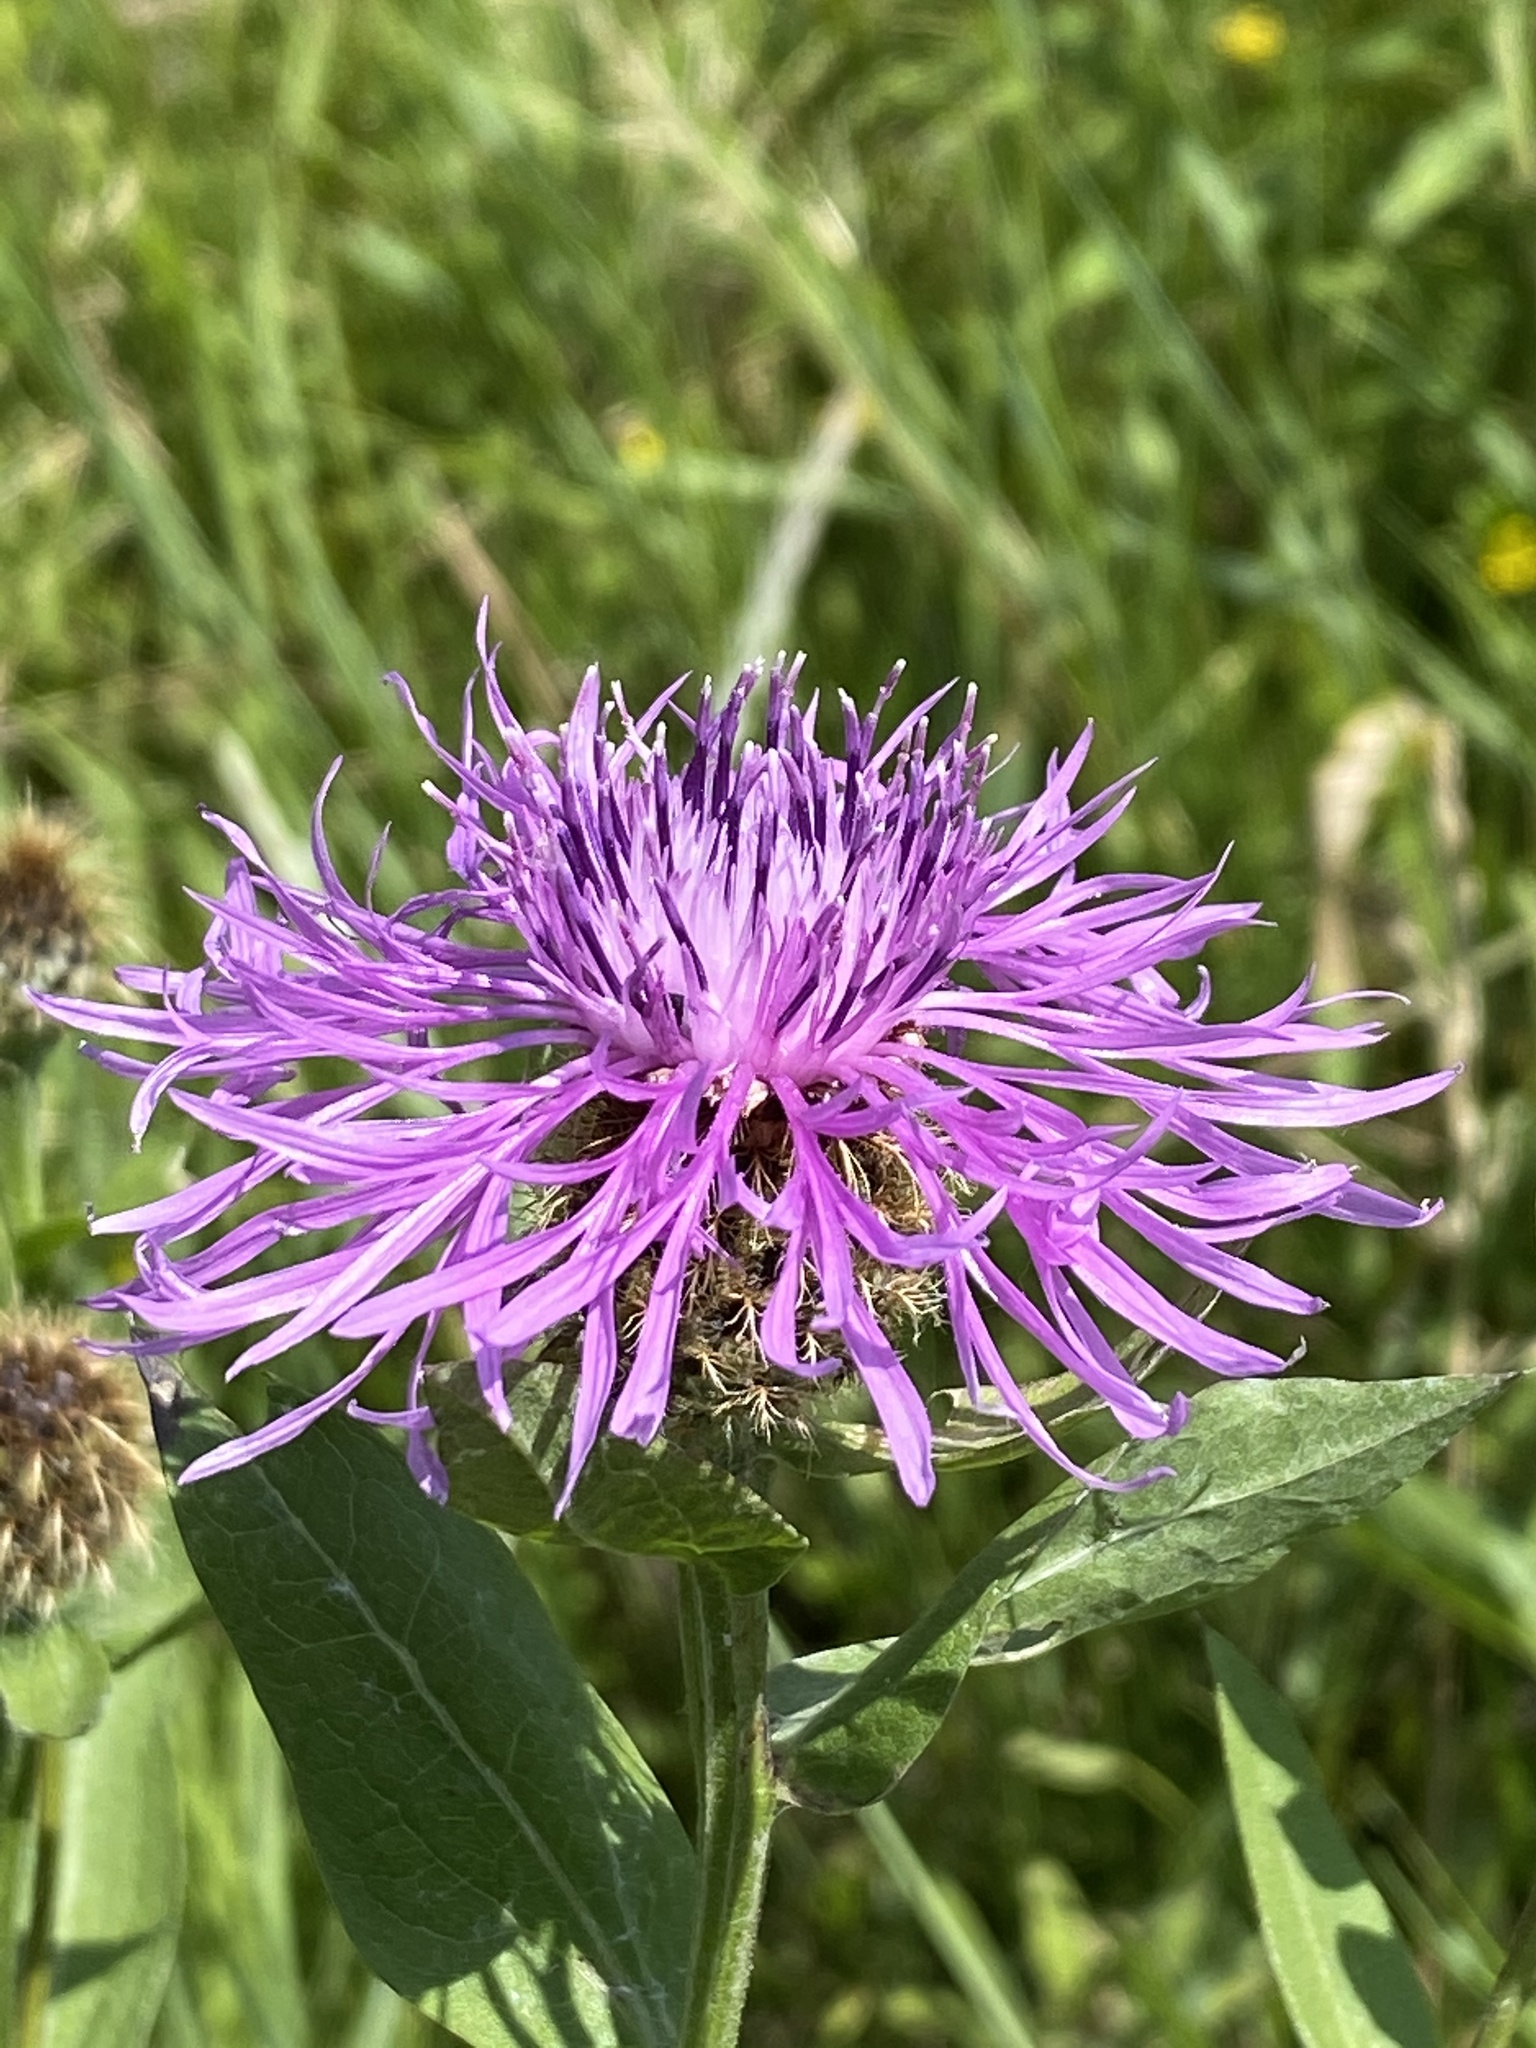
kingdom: Plantae
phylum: Tracheophyta
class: Magnoliopsida
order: Asterales
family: Asteraceae
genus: Centaurea
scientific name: Centaurea jacea
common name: Brown knapweed
